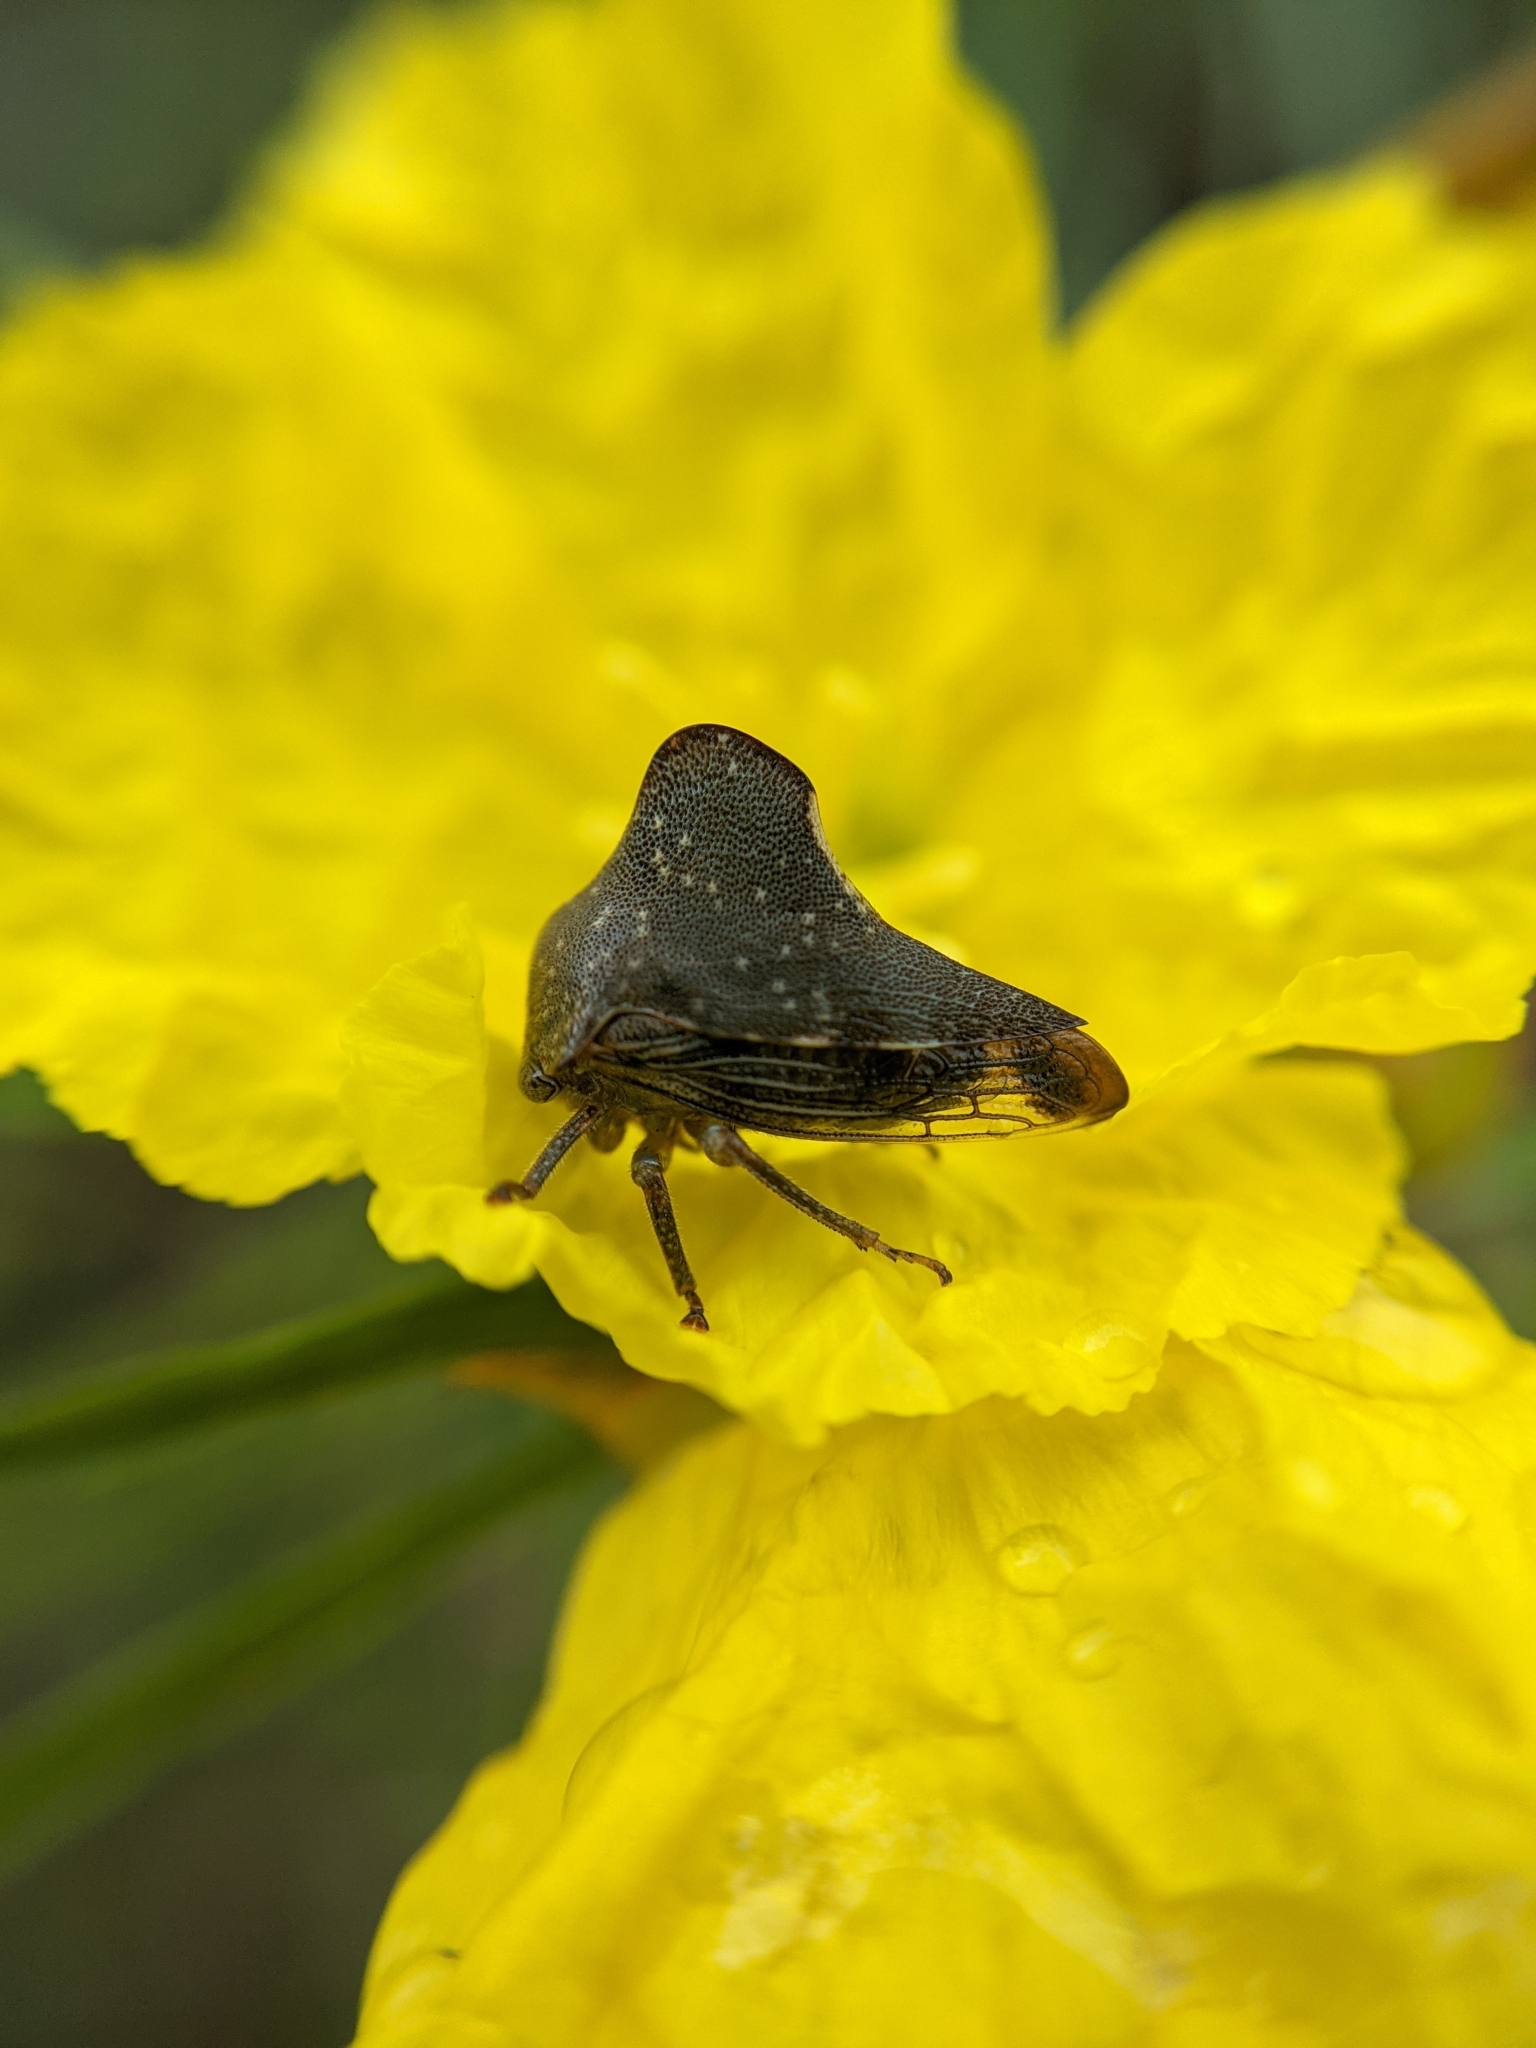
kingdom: Animalia
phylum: Arthropoda
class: Insecta
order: Hemiptera
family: Membracidae
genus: Telamona
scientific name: Telamona monticola
